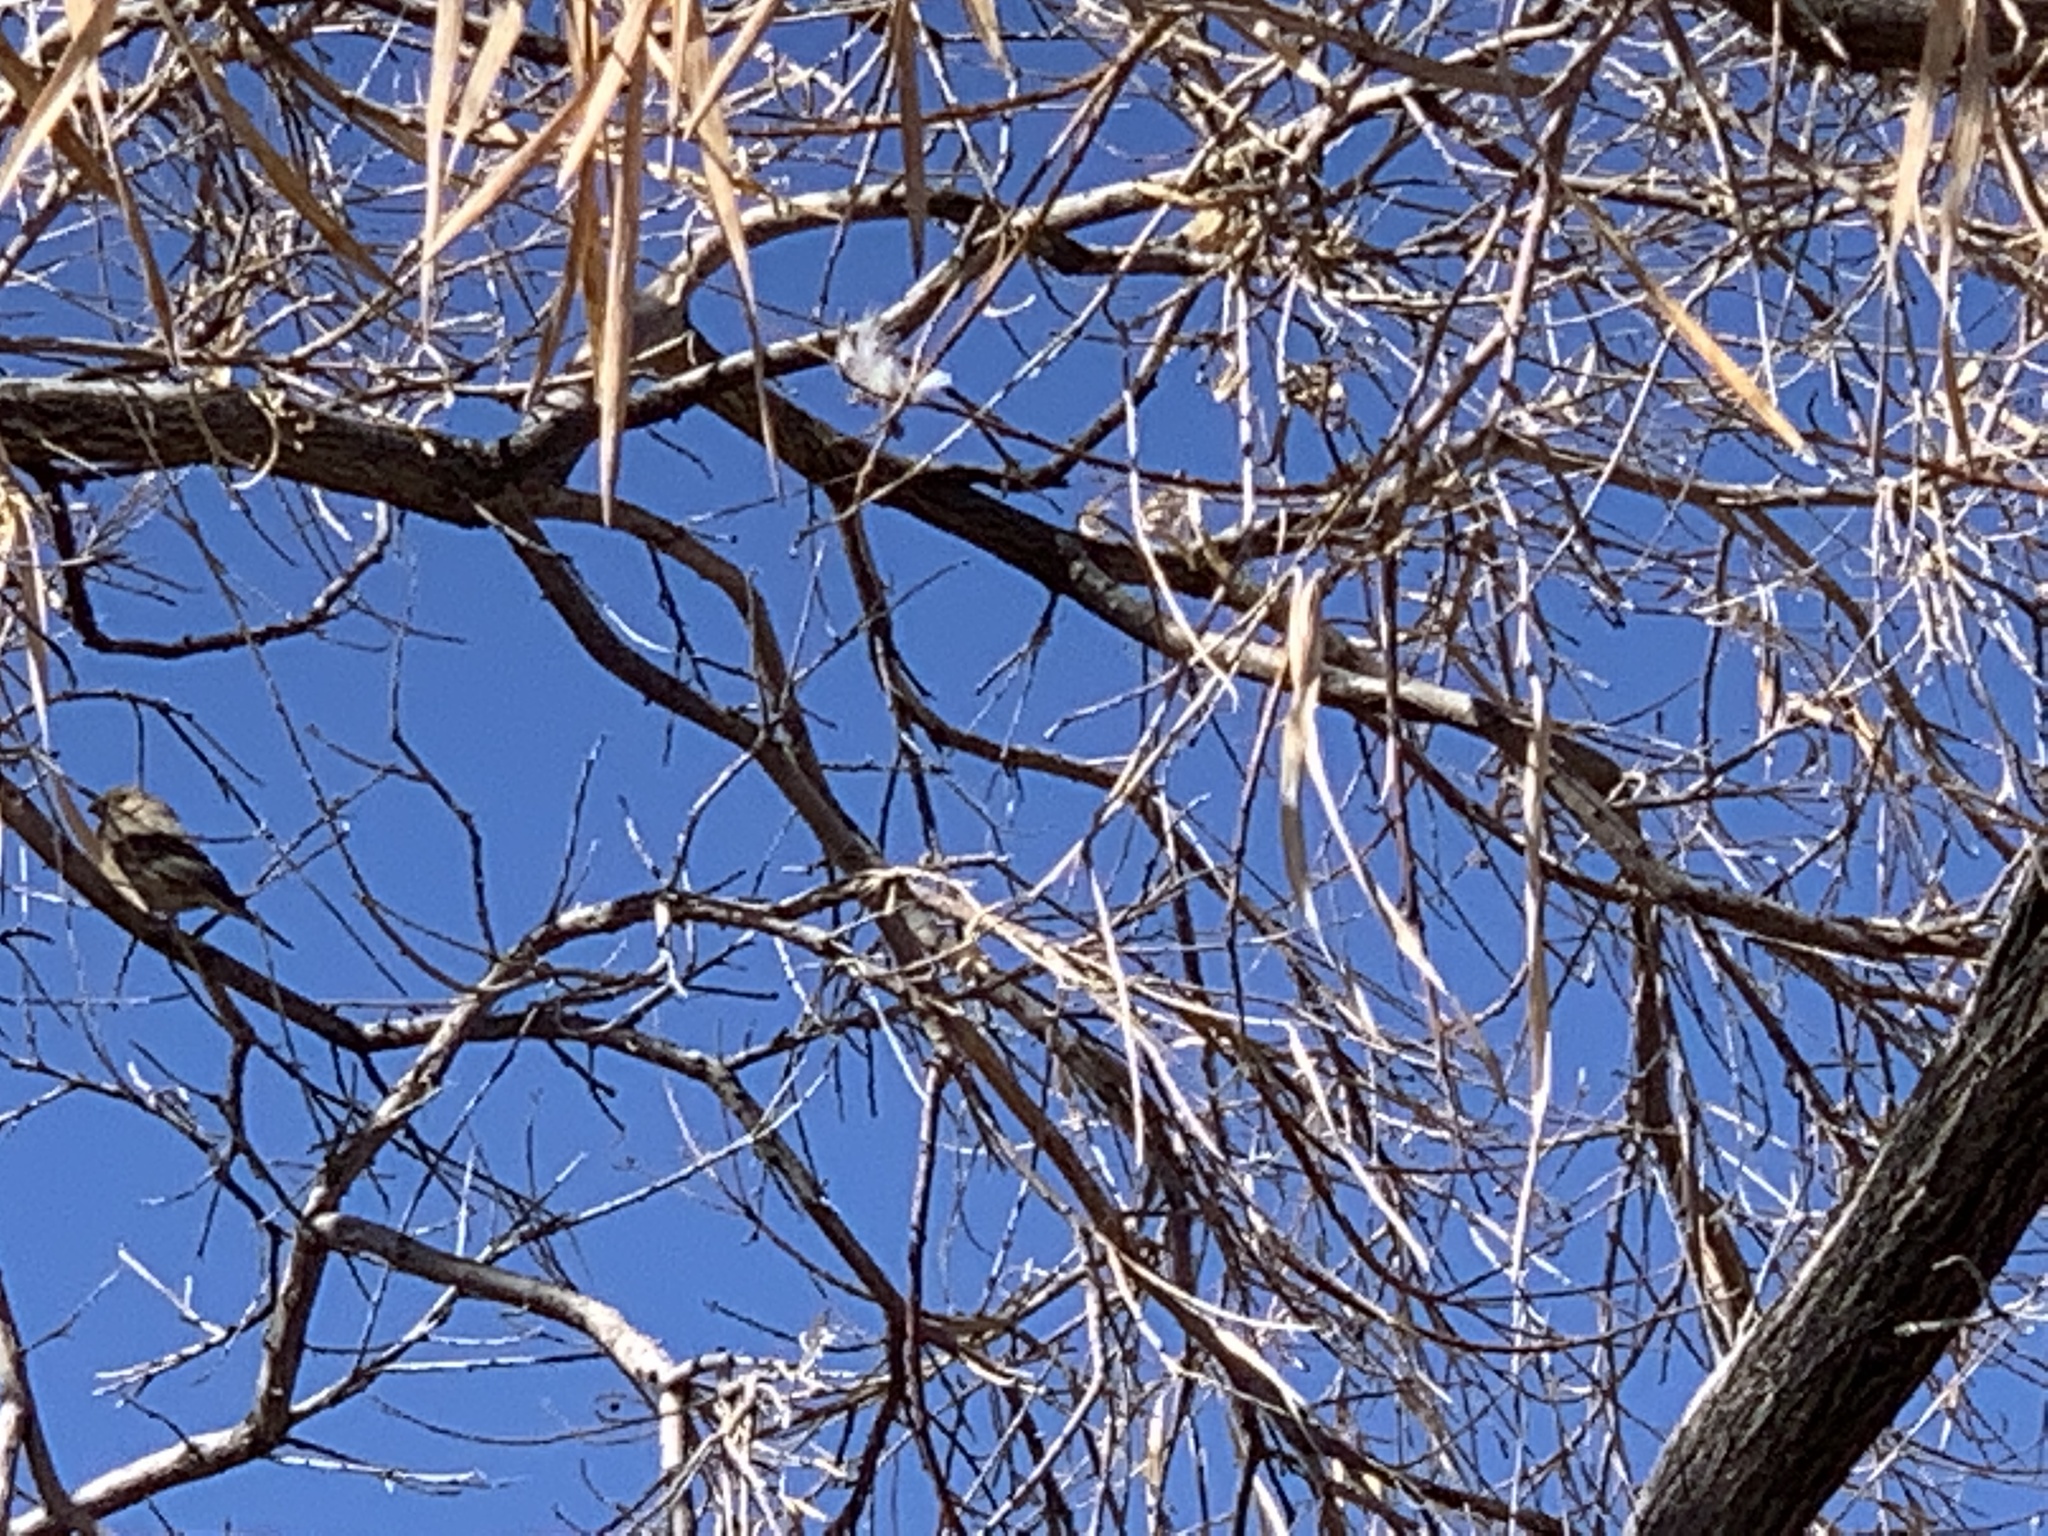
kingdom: Animalia
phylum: Chordata
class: Aves
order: Passeriformes
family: Fringillidae
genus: Haemorhous
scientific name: Haemorhous mexicanus
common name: House finch
